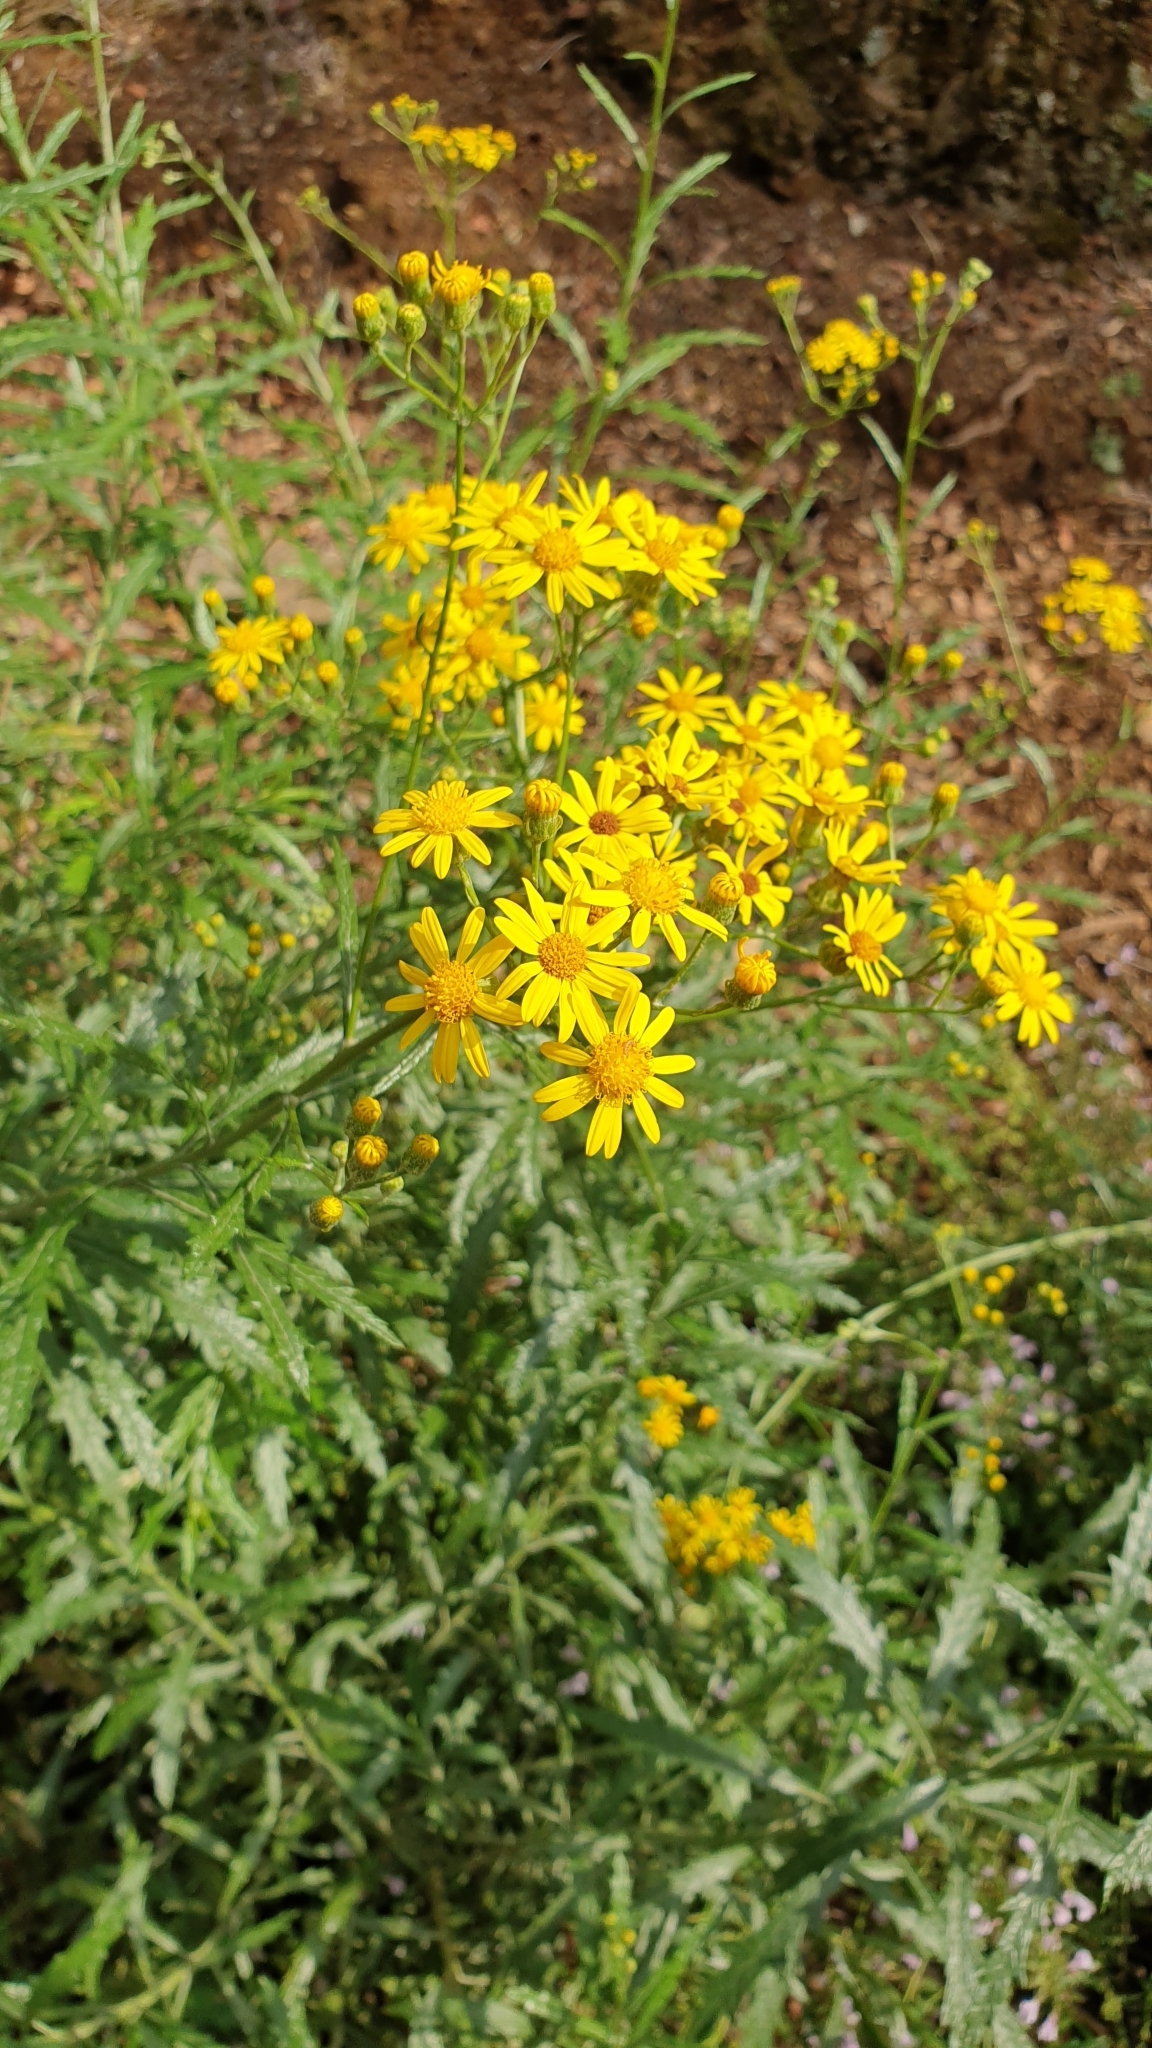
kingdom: Plantae
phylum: Tracheophyta
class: Magnoliopsida
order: Asterales
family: Asteraceae
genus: Senecio
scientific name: Senecio pterophorus
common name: Shoddy ragwort
